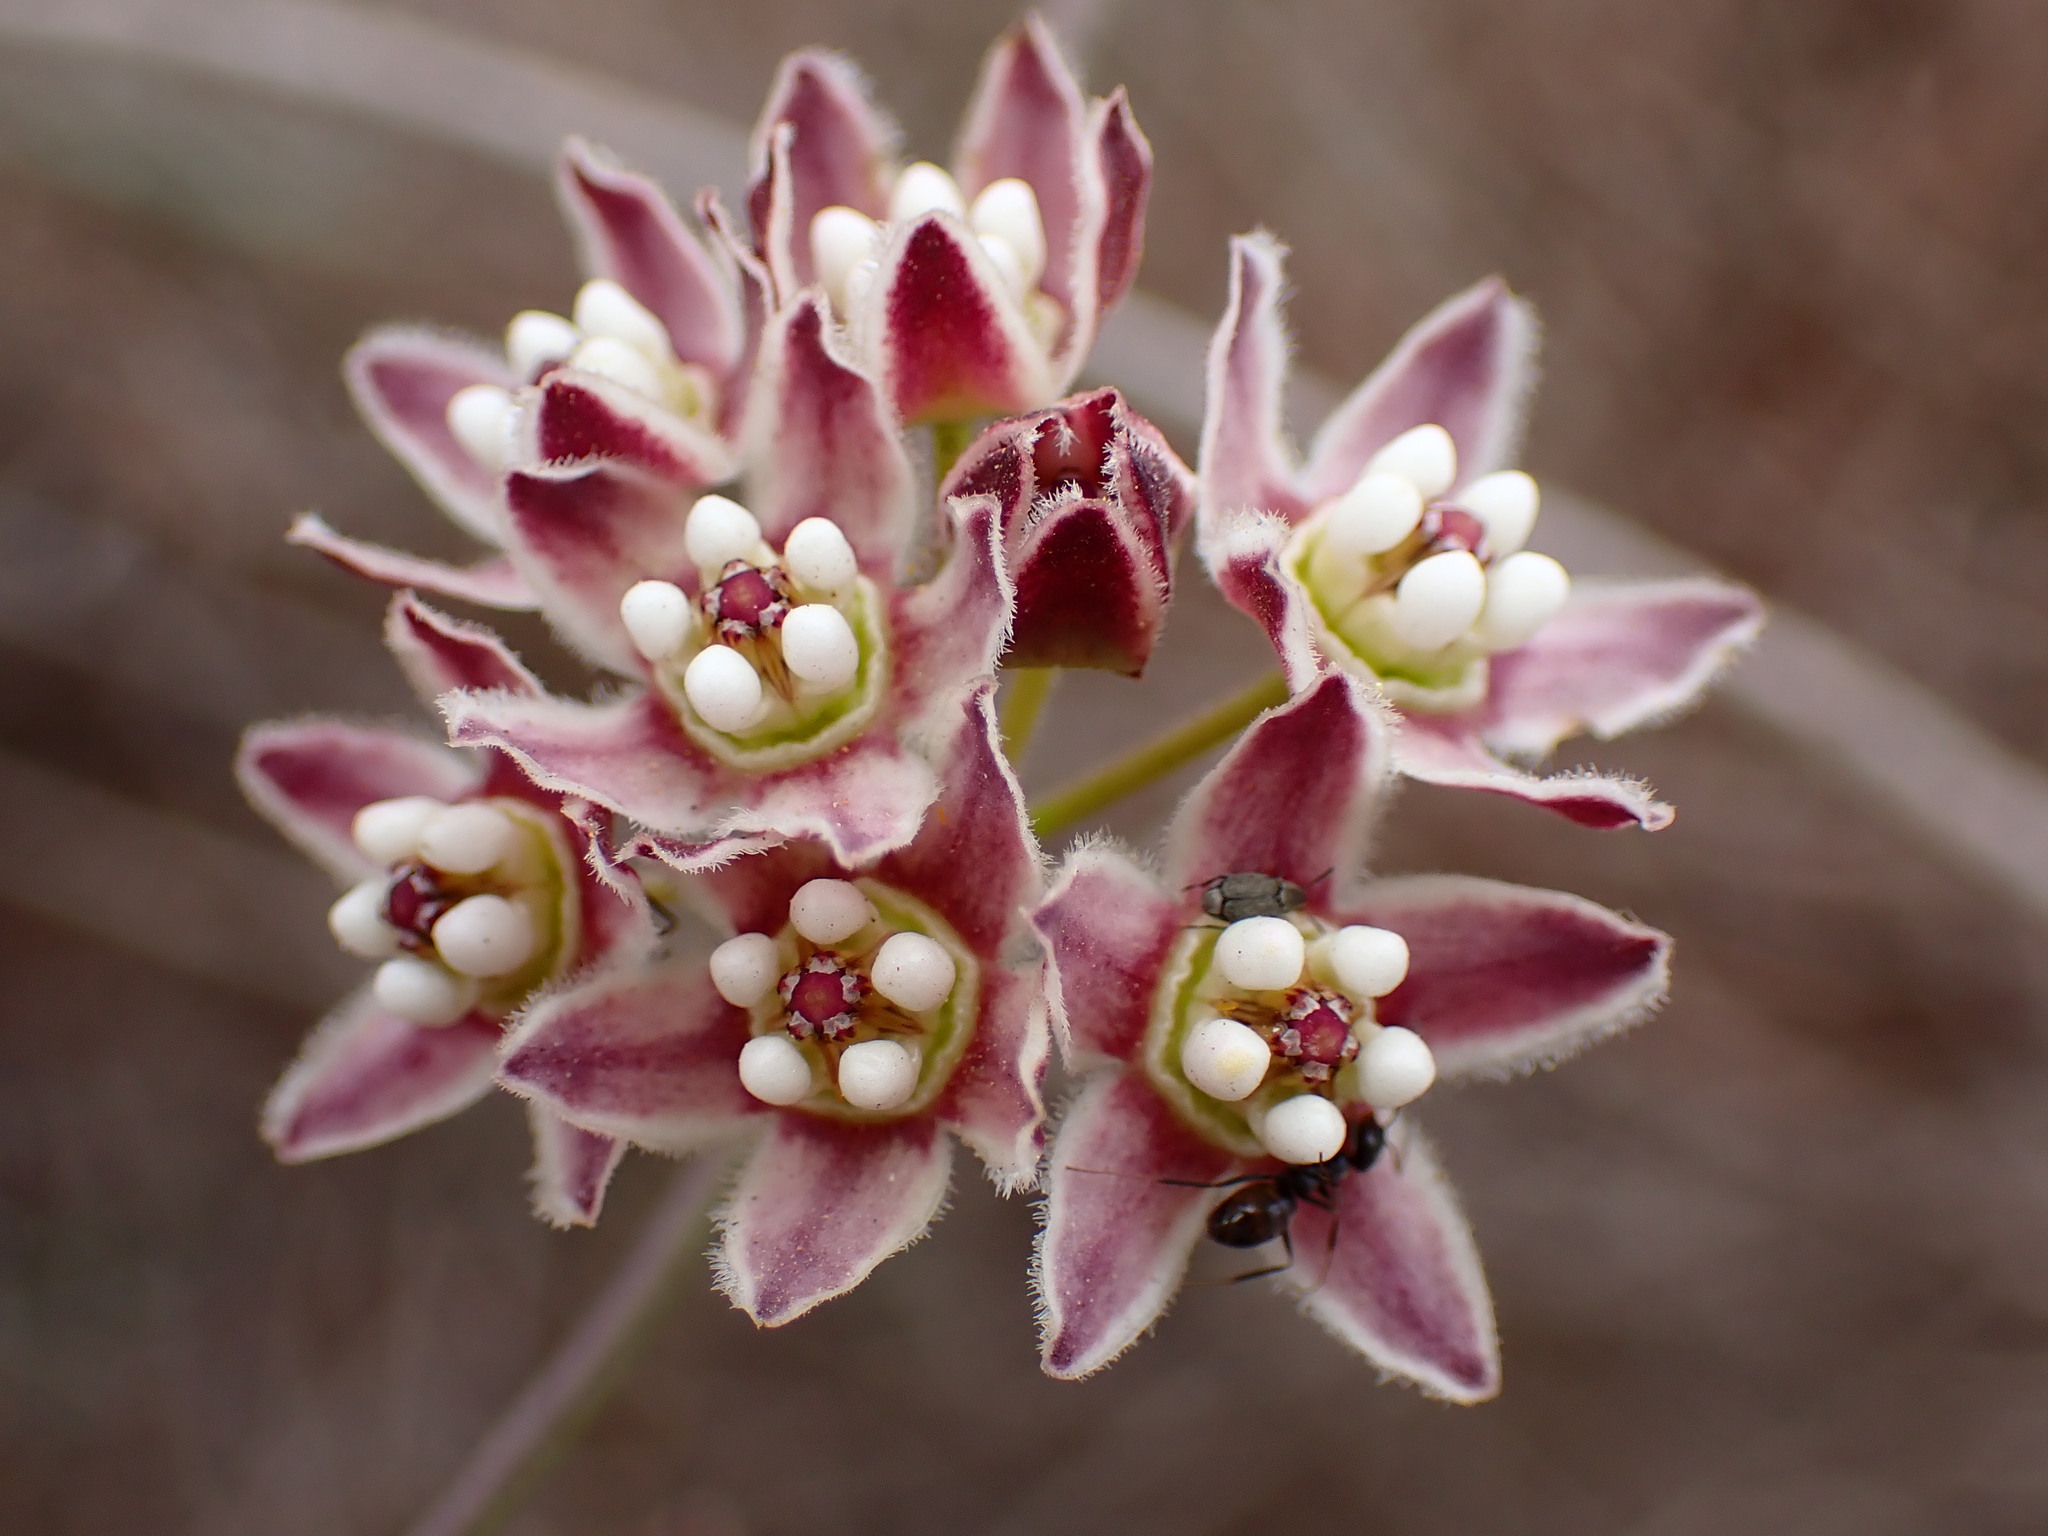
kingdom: Plantae
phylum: Tracheophyta
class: Magnoliopsida
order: Gentianales
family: Apocynaceae
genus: Funastrum
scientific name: Funastrum heterophyllum
